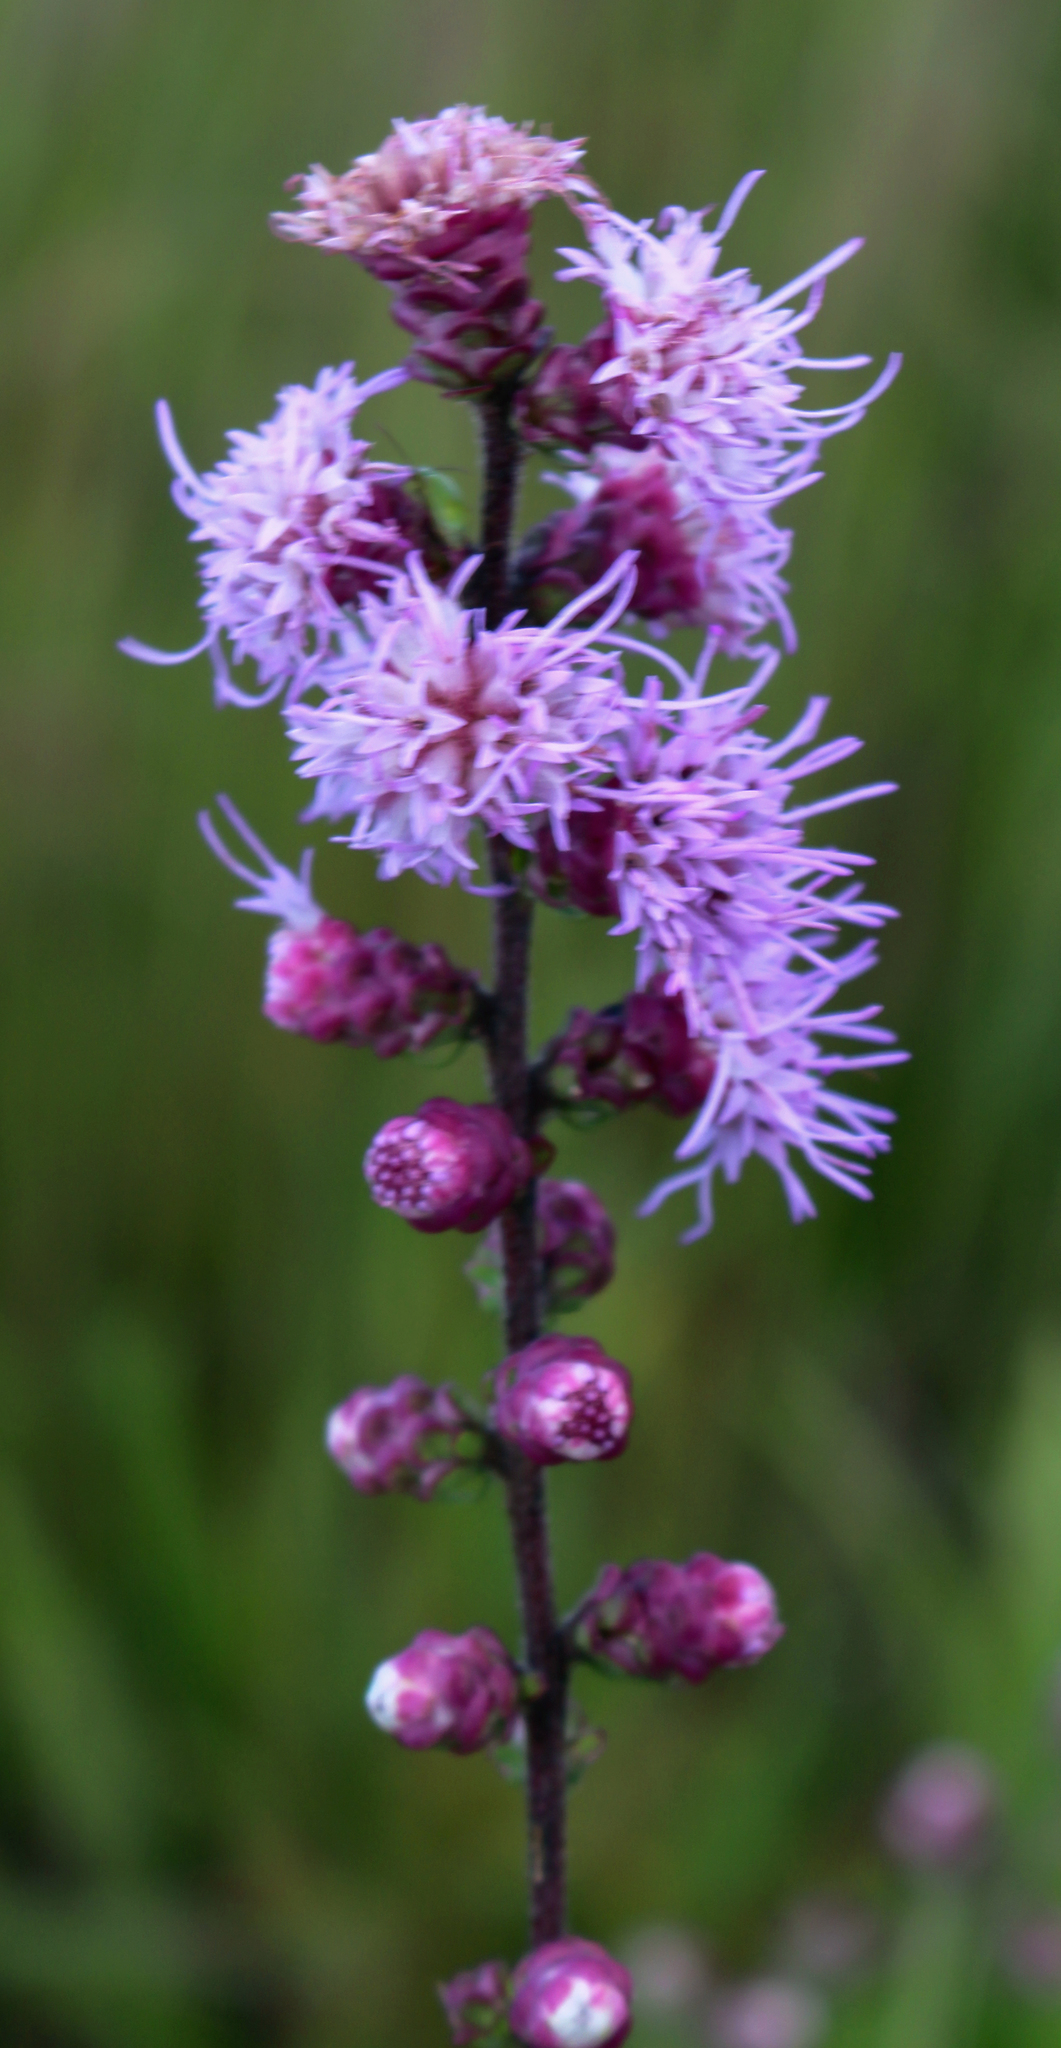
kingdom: Plantae
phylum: Tracheophyta
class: Magnoliopsida
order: Asterales
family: Asteraceae
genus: Liatris
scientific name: Liatris aspera
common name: Lacerate blazing-star
